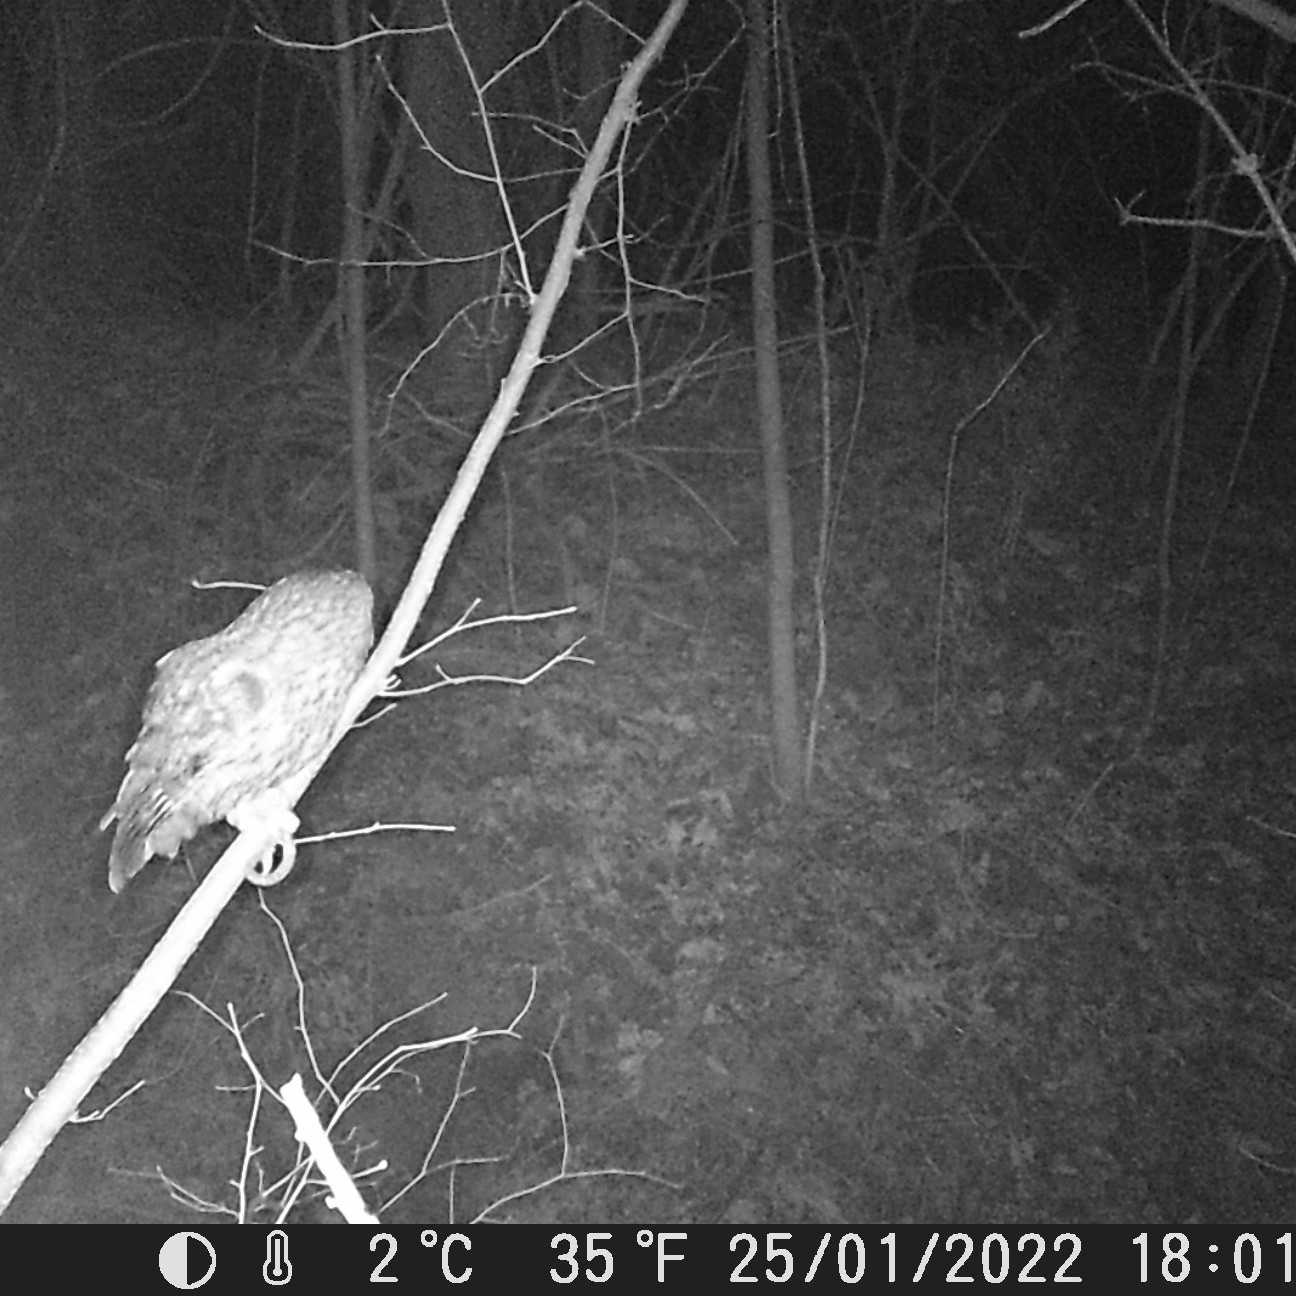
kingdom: Animalia
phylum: Chordata
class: Aves
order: Strigiformes
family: Strigidae
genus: Strix
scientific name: Strix aluco
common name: Tawny owl
